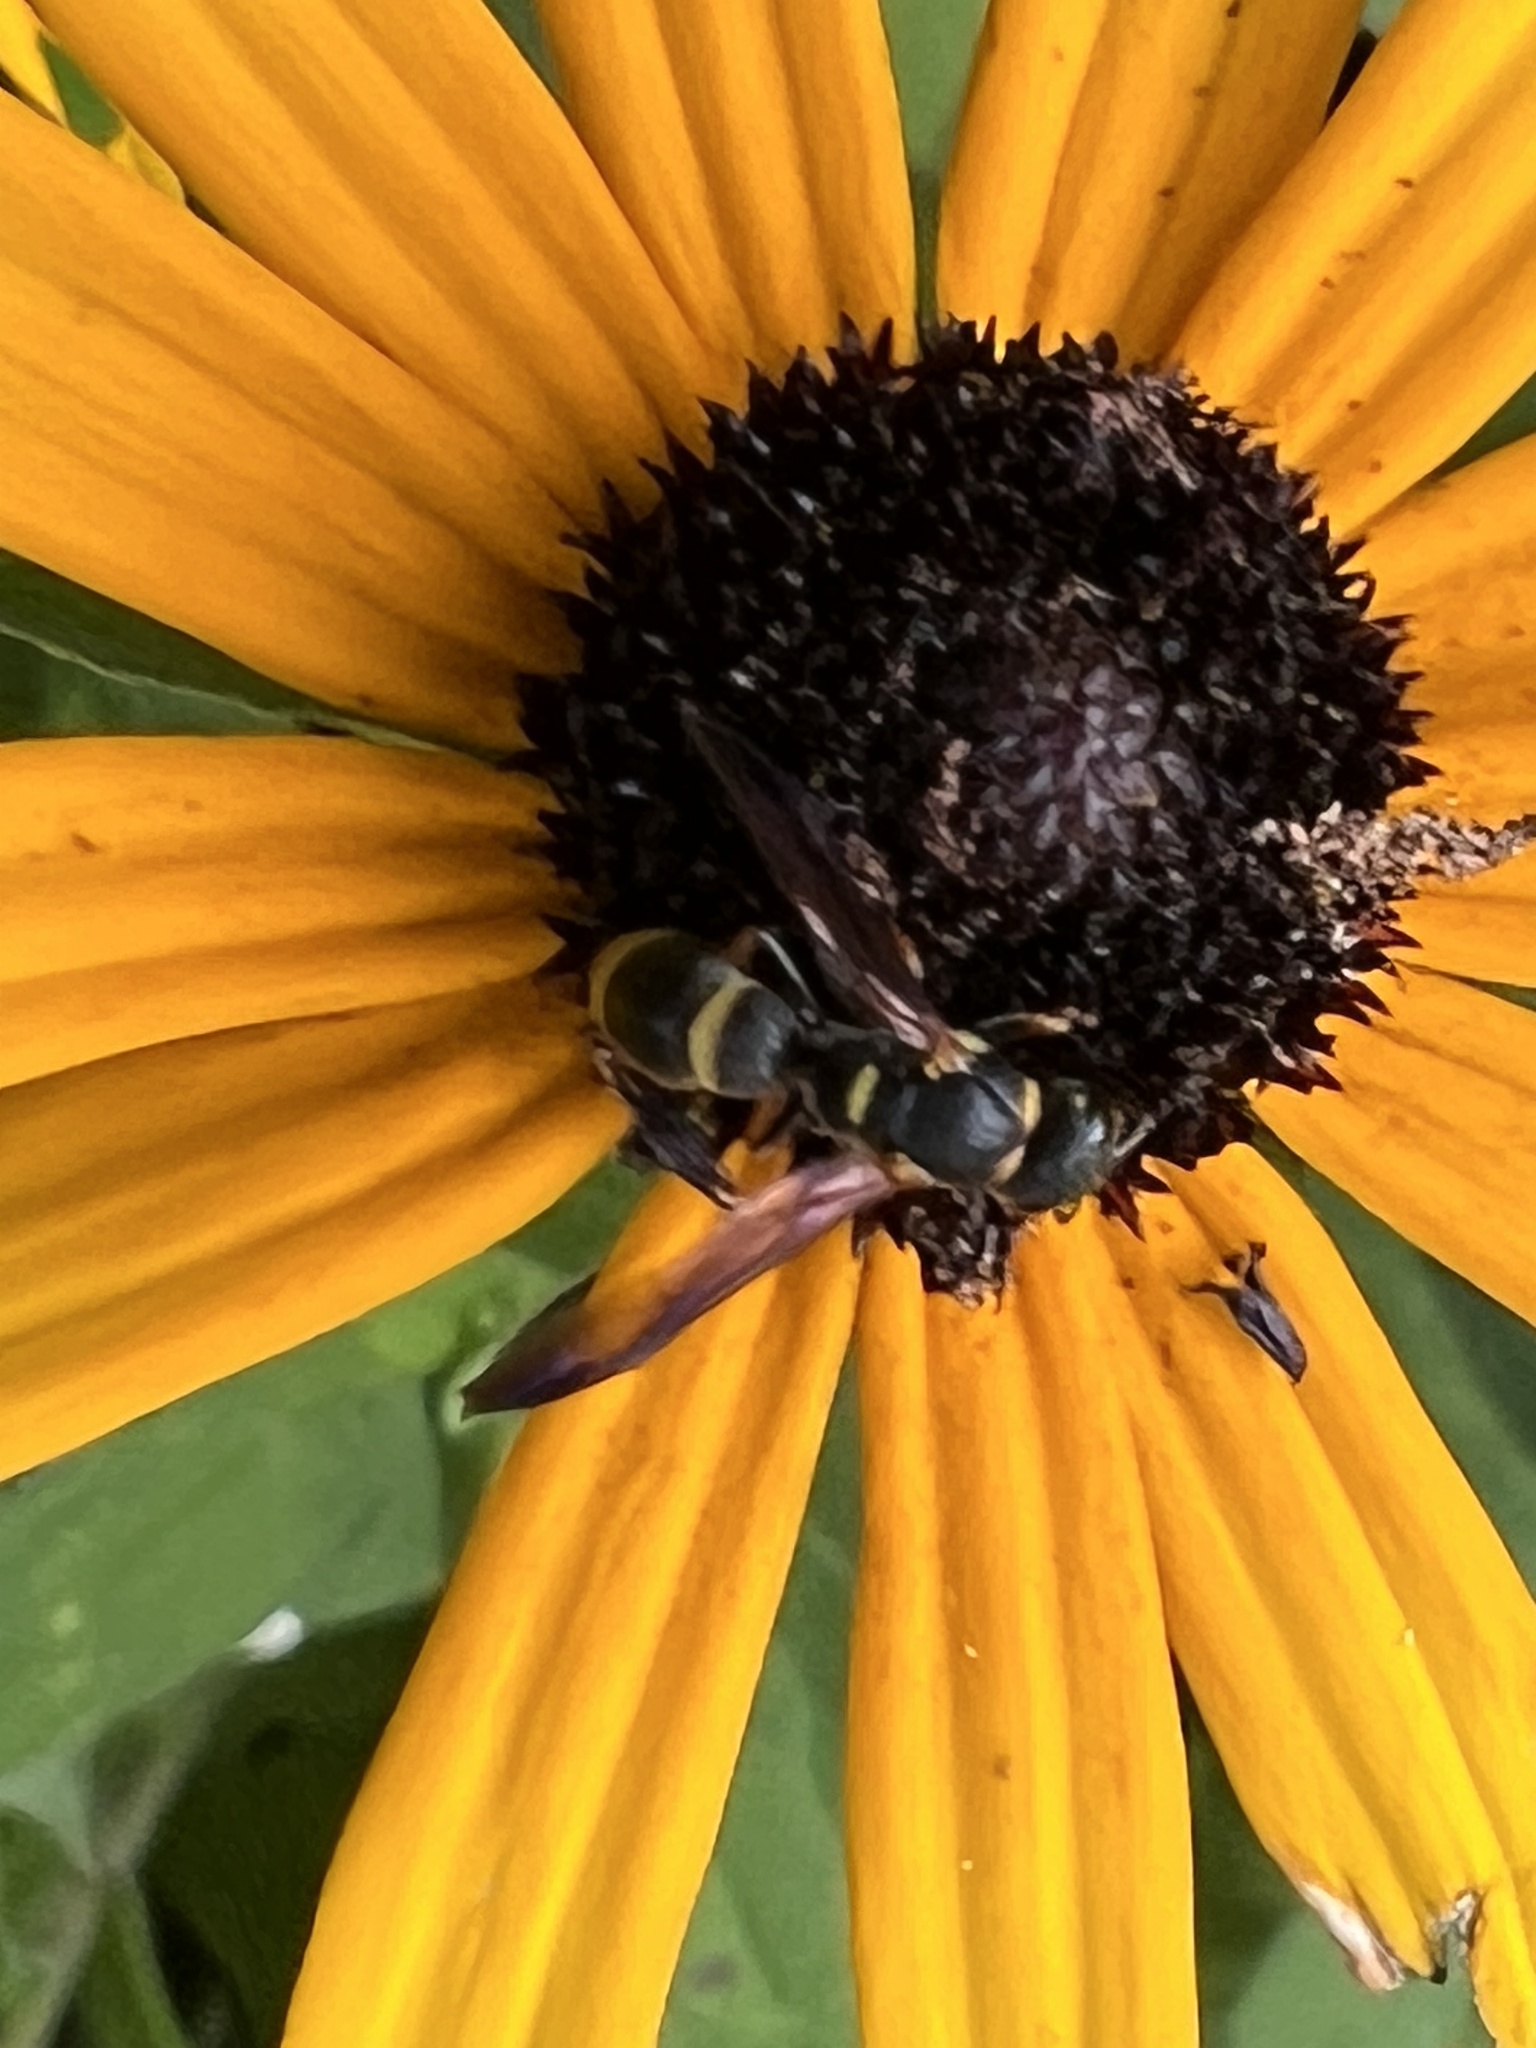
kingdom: Animalia
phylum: Arthropoda
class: Insecta
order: Hymenoptera
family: Eumenidae
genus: Parancistrocerus
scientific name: Parancistrocerus perennis
